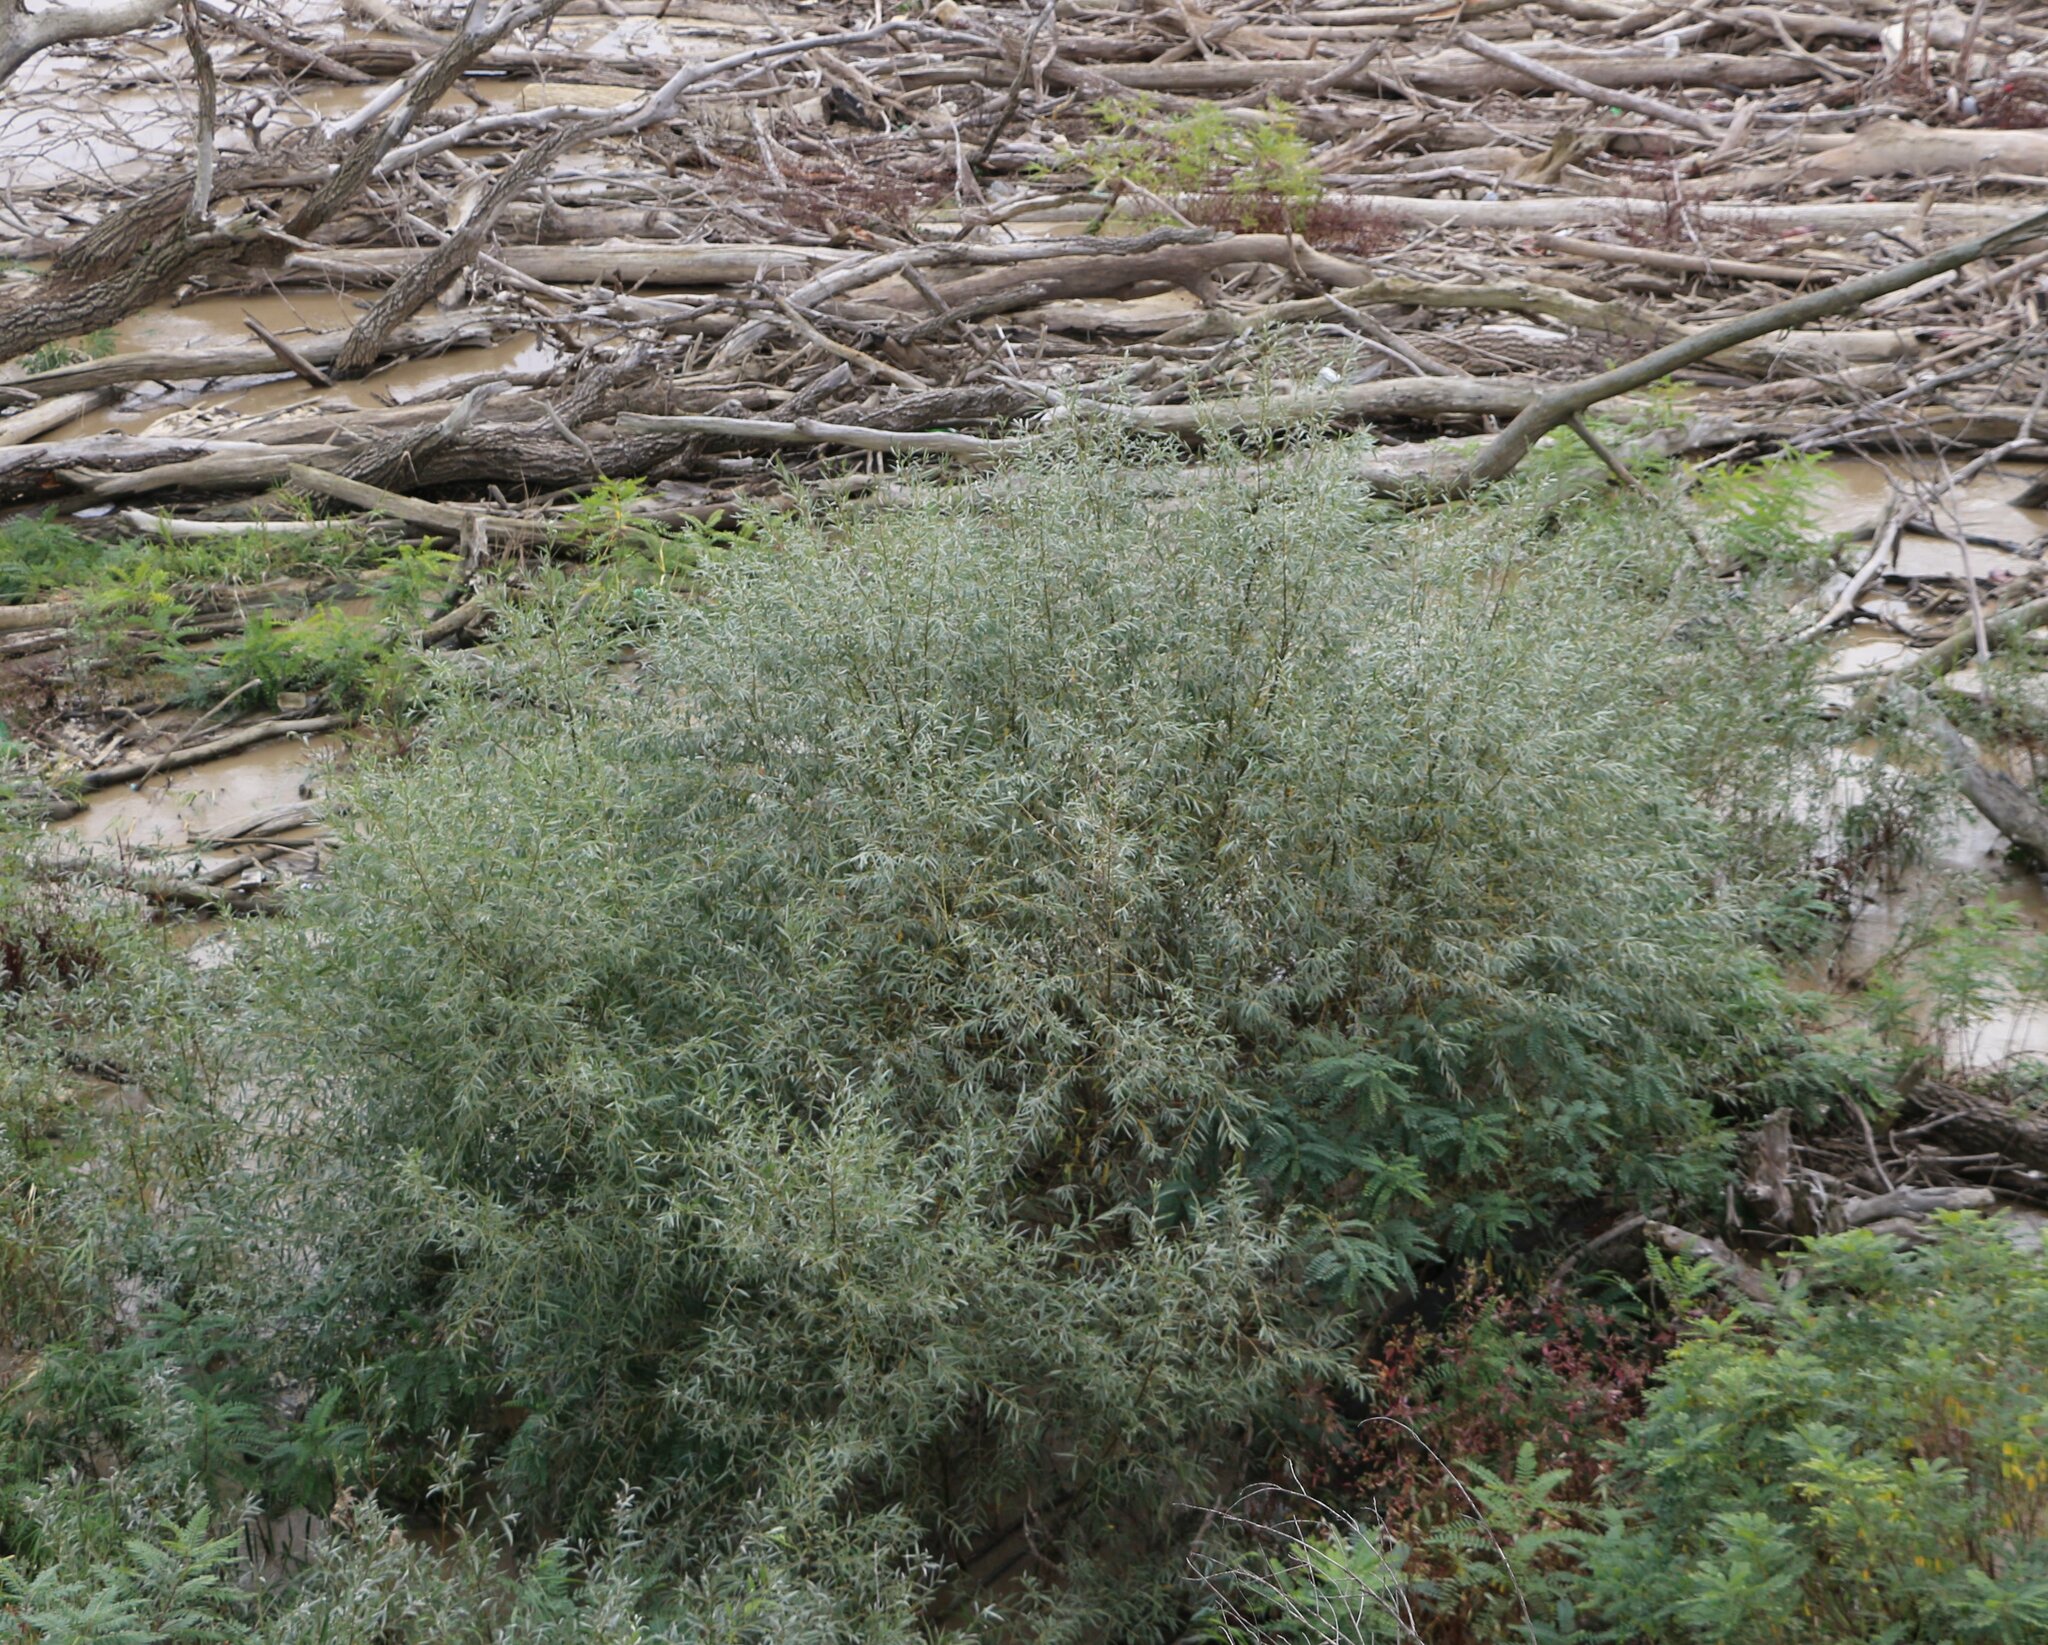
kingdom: Plantae
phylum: Tracheophyta
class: Magnoliopsida
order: Malpighiales
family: Salicaceae
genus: Salix
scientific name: Salix alba
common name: White willow
